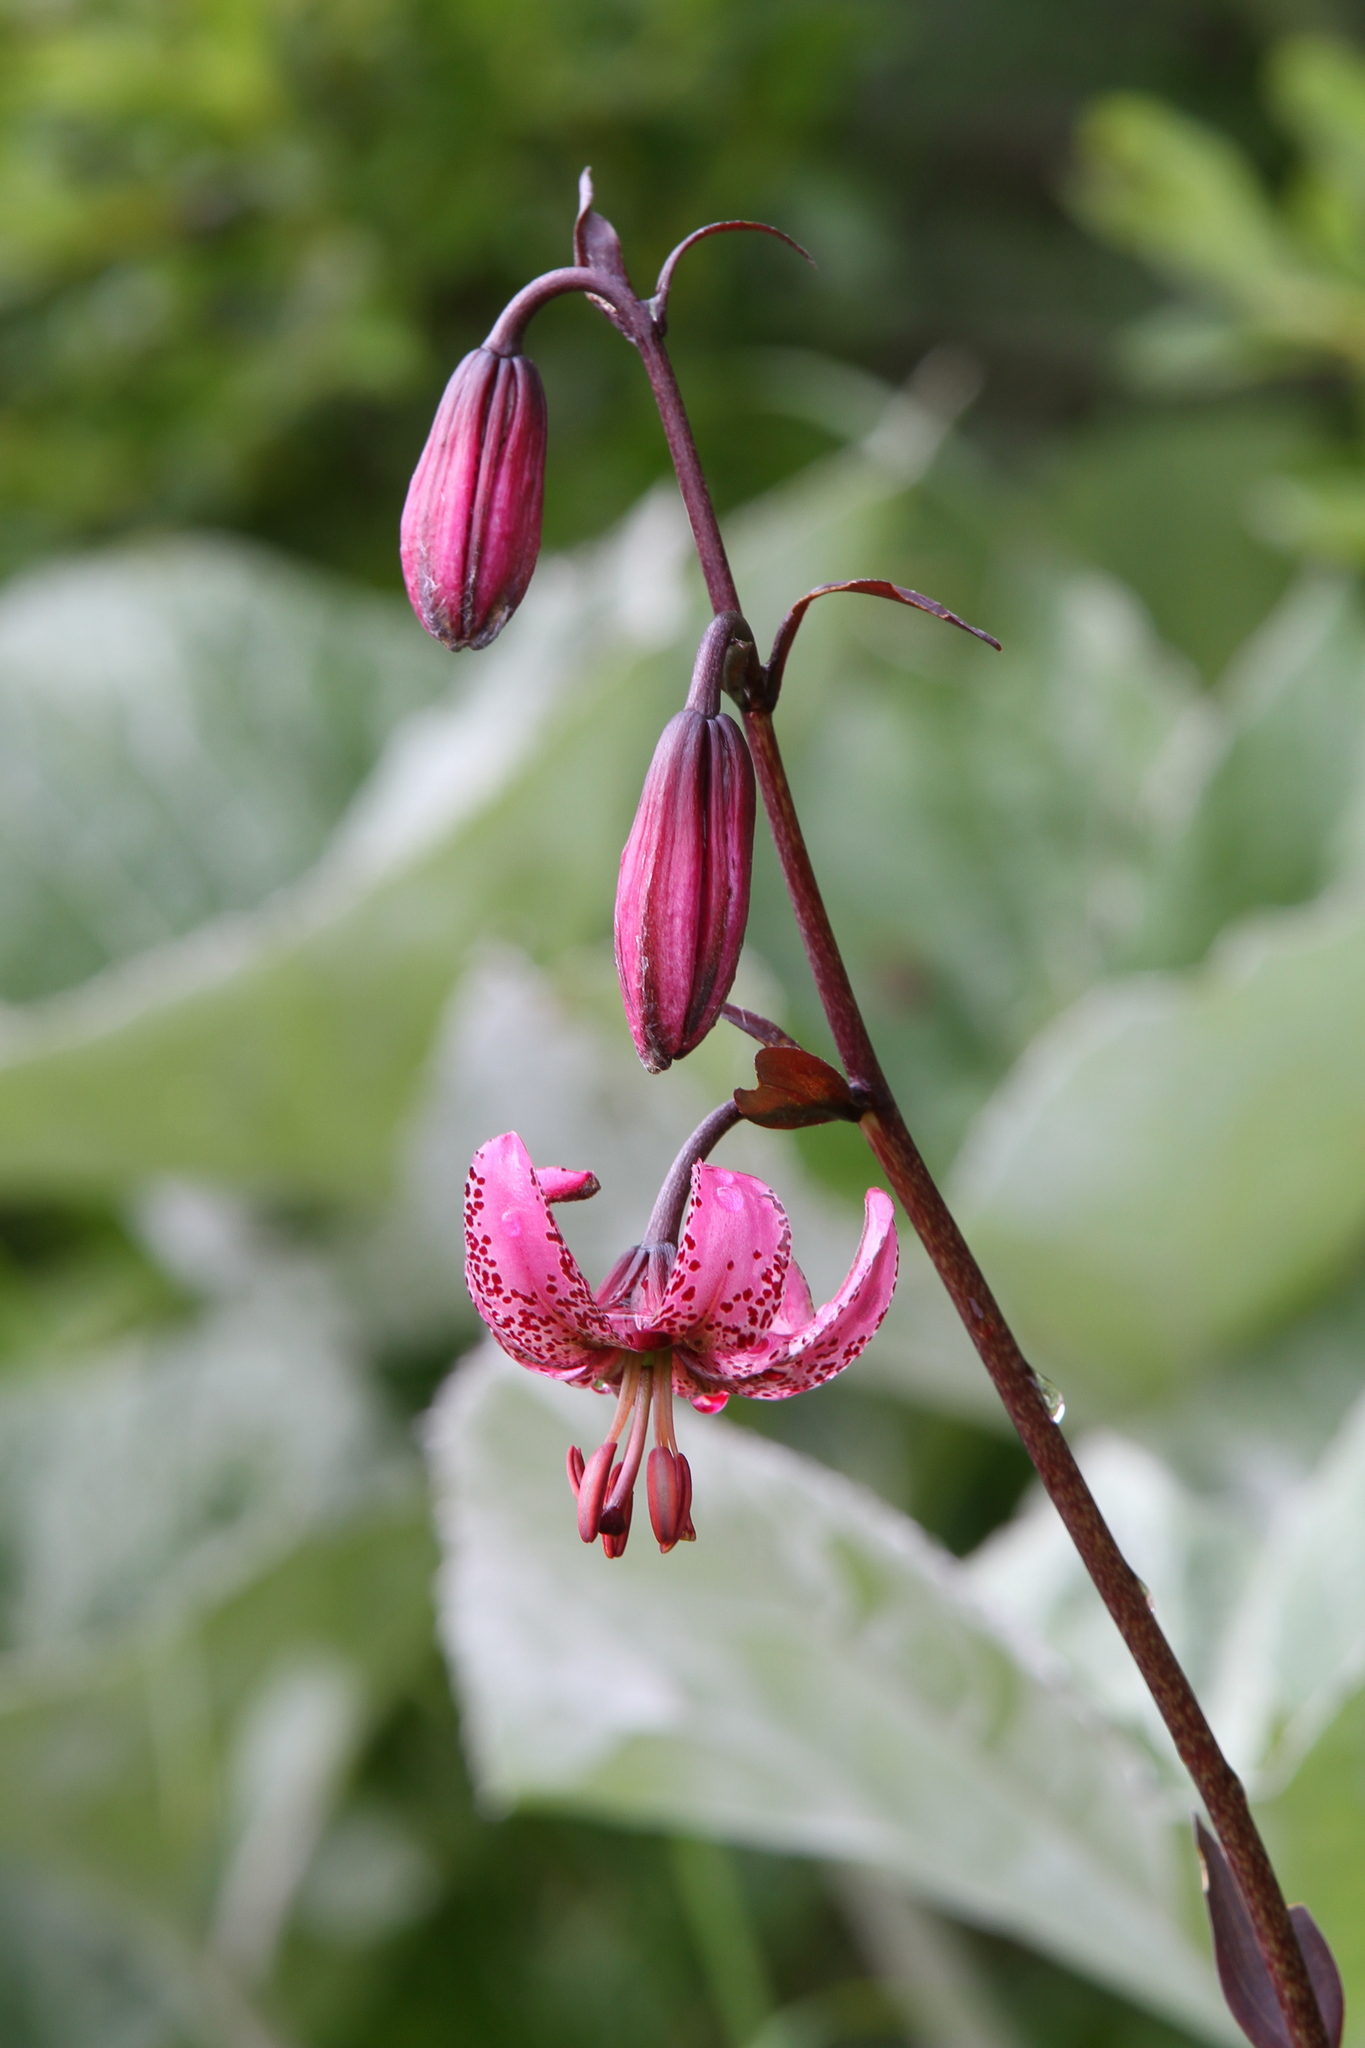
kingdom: Plantae
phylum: Tracheophyta
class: Liliopsida
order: Liliales
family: Liliaceae
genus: Lilium
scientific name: Lilium martagon
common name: Martagon lily
